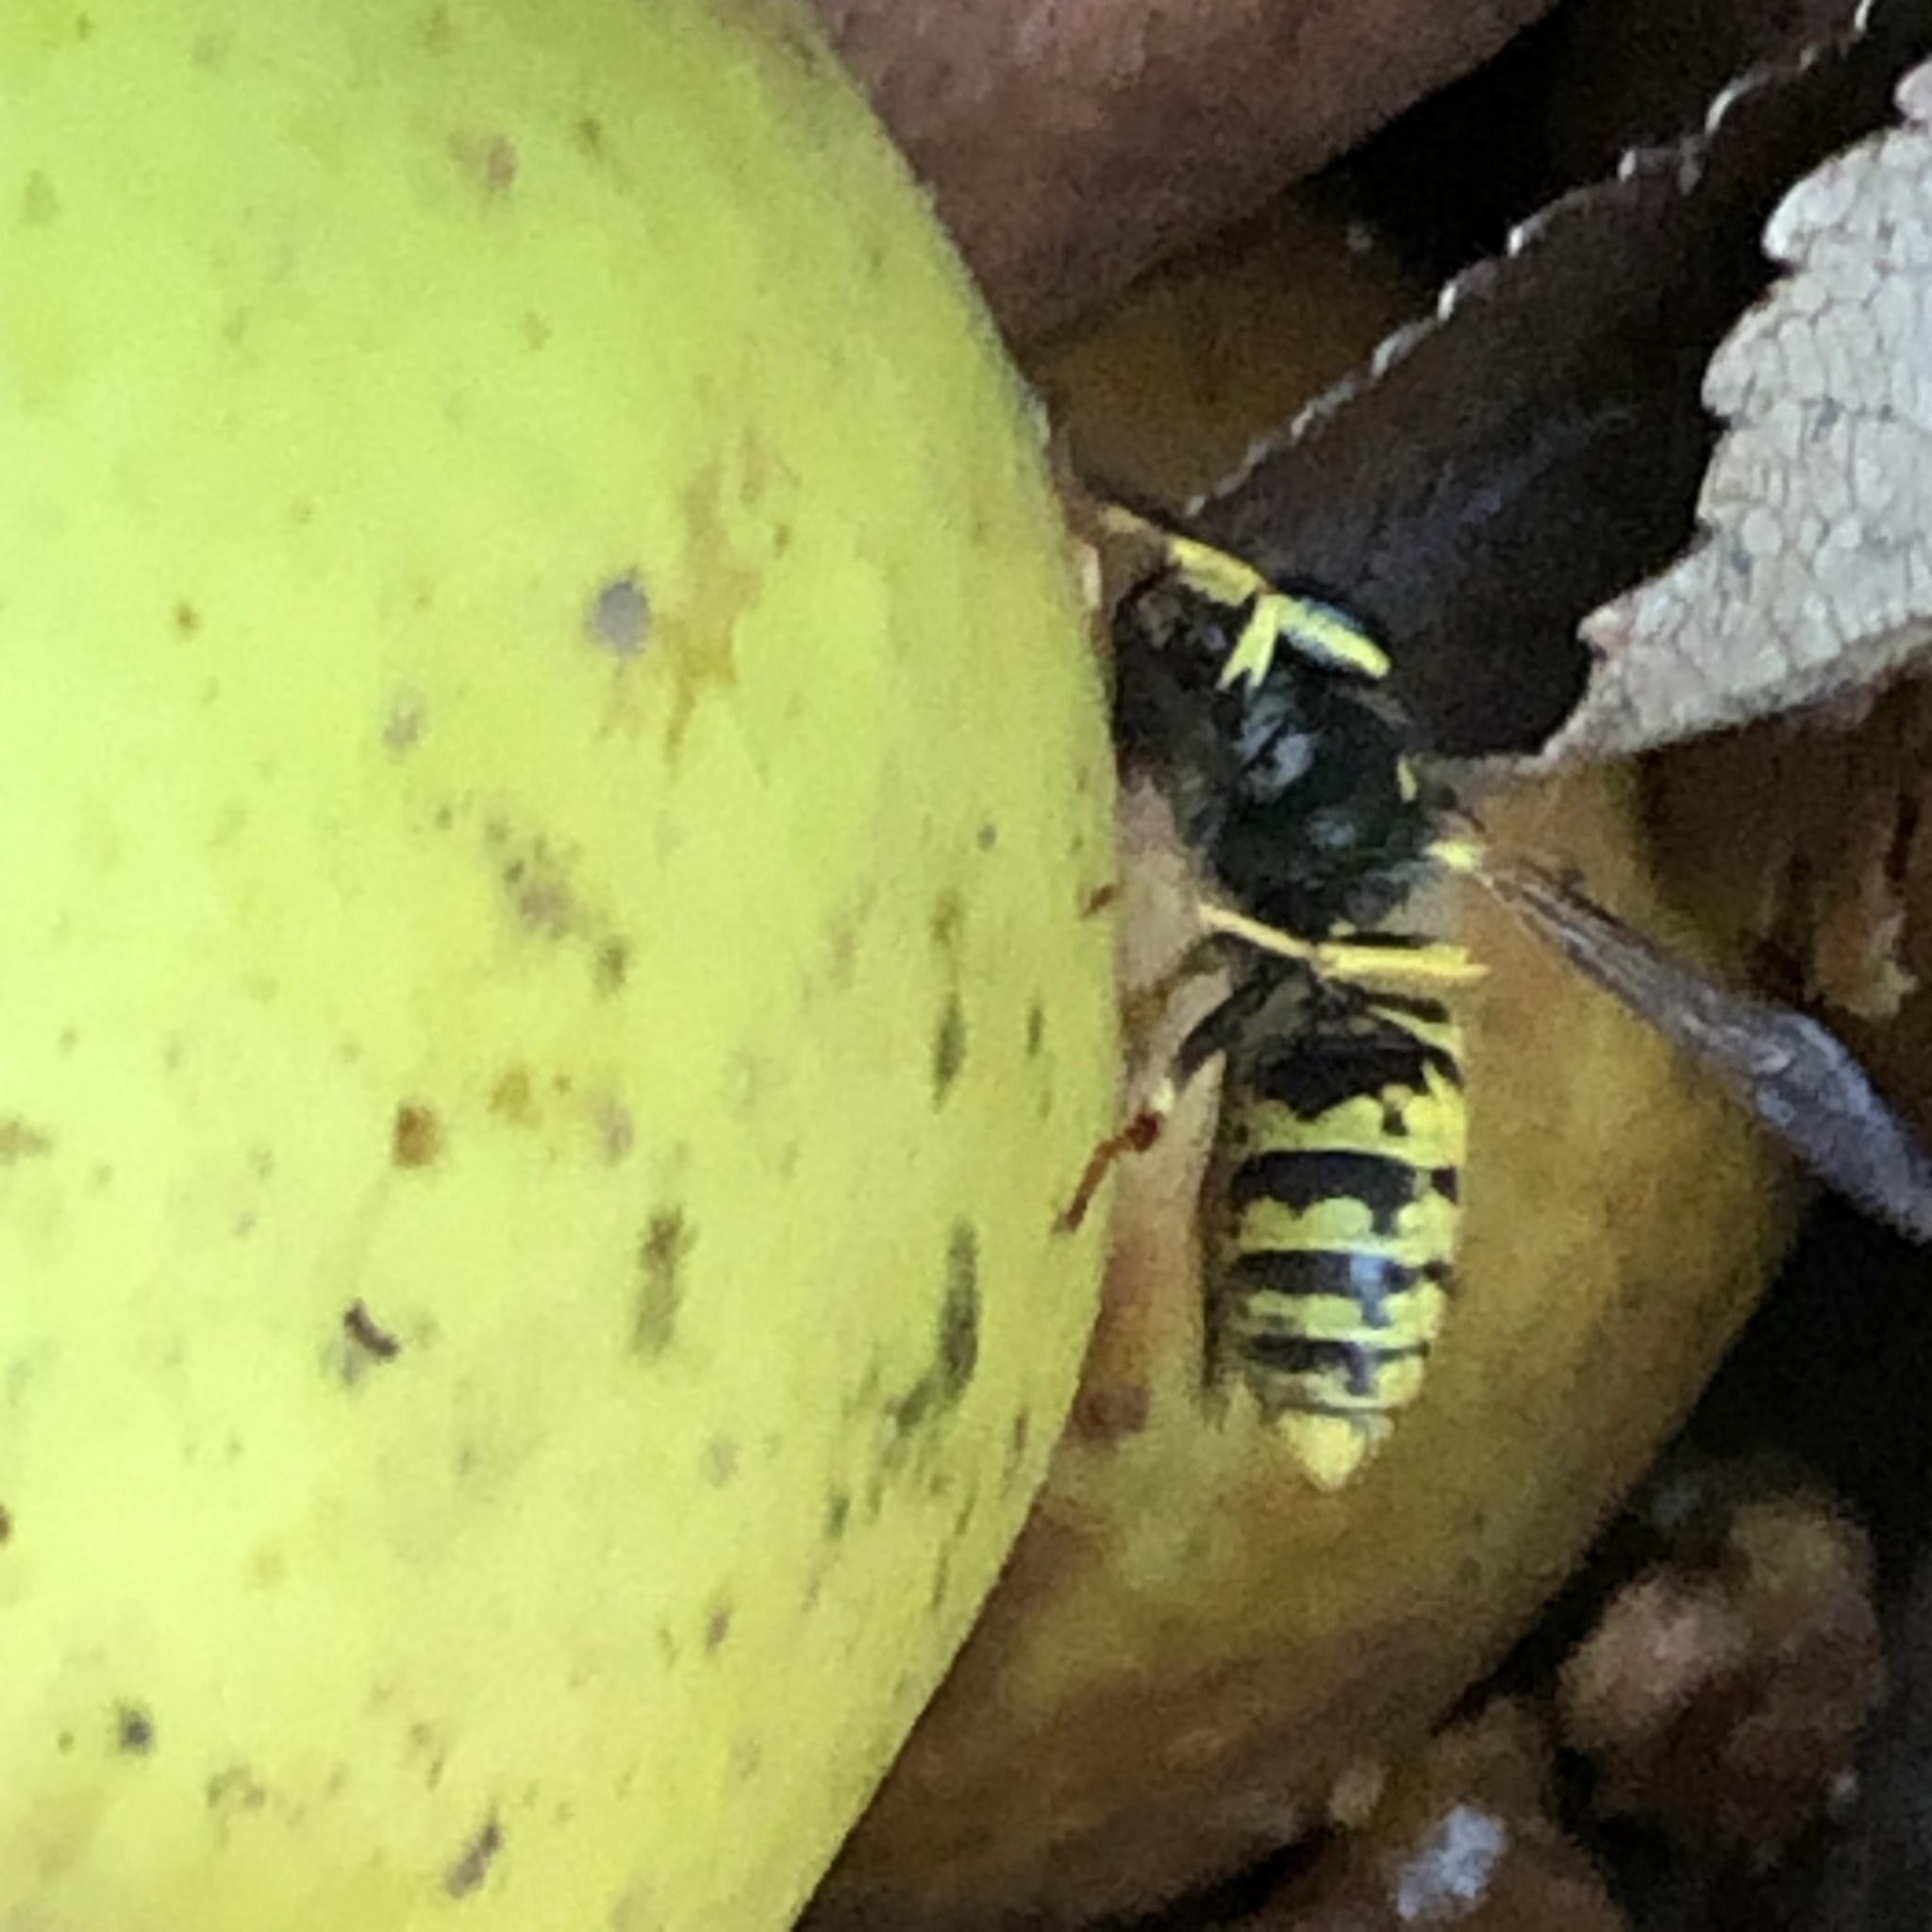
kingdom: Animalia
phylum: Arthropoda
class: Insecta
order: Hymenoptera
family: Vespidae
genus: Vespula
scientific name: Vespula
